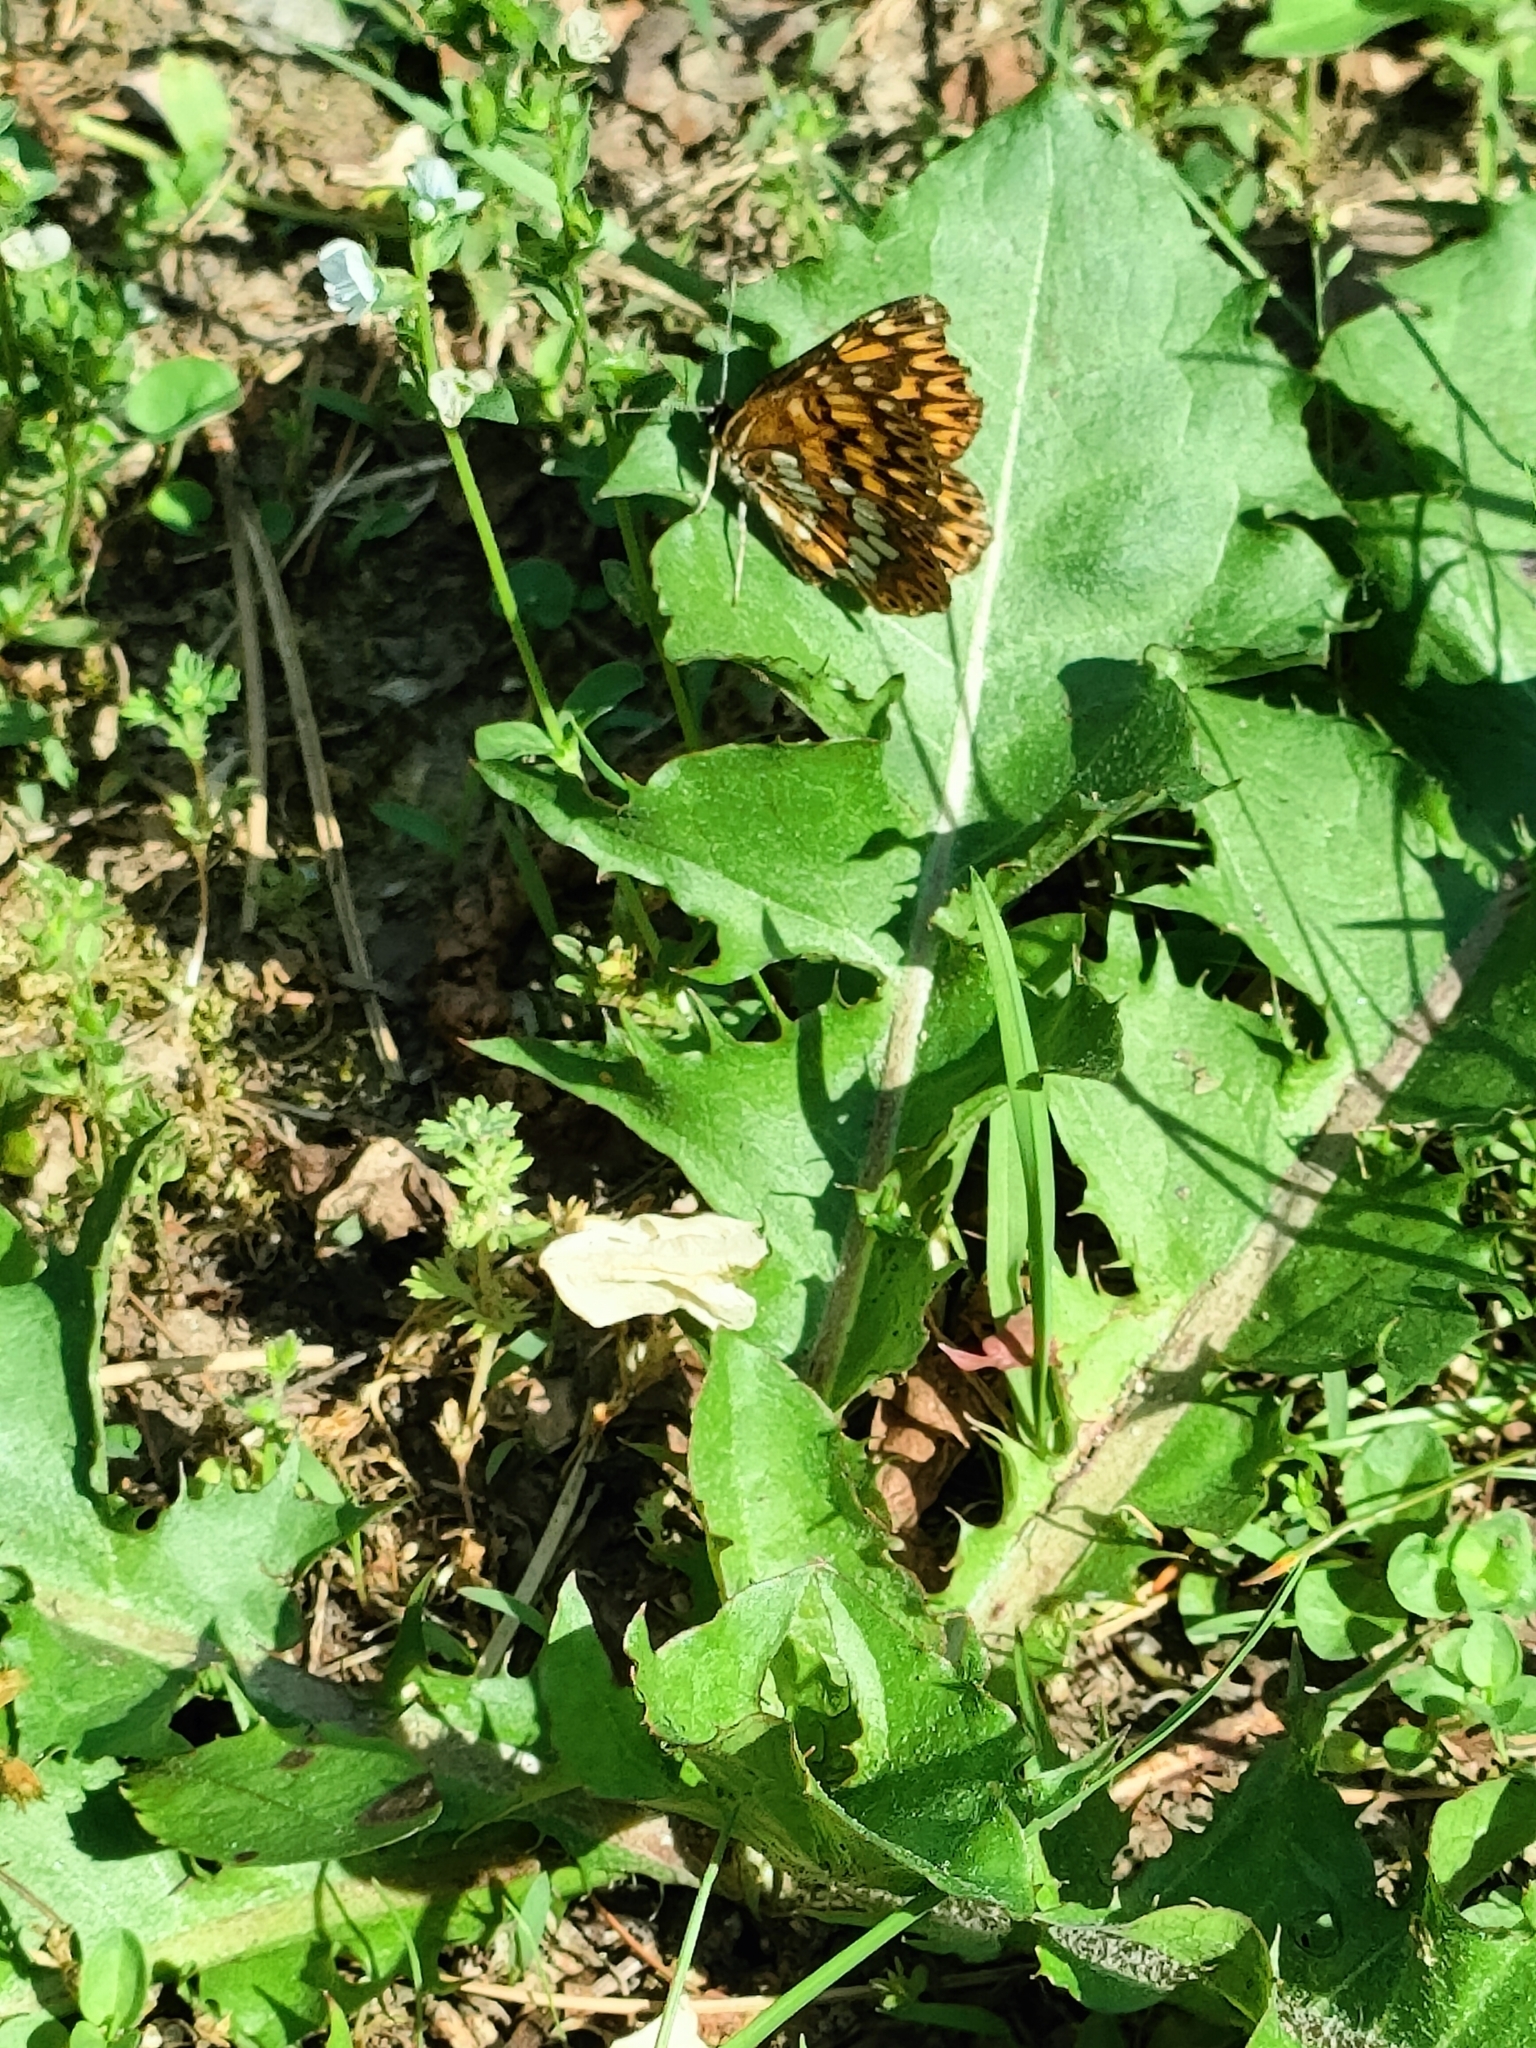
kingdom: Animalia
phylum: Arthropoda
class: Insecta
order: Lepidoptera
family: Riodinidae
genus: Hamearis
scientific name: Hamearis lucina
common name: Duke of burgundy fritillary
